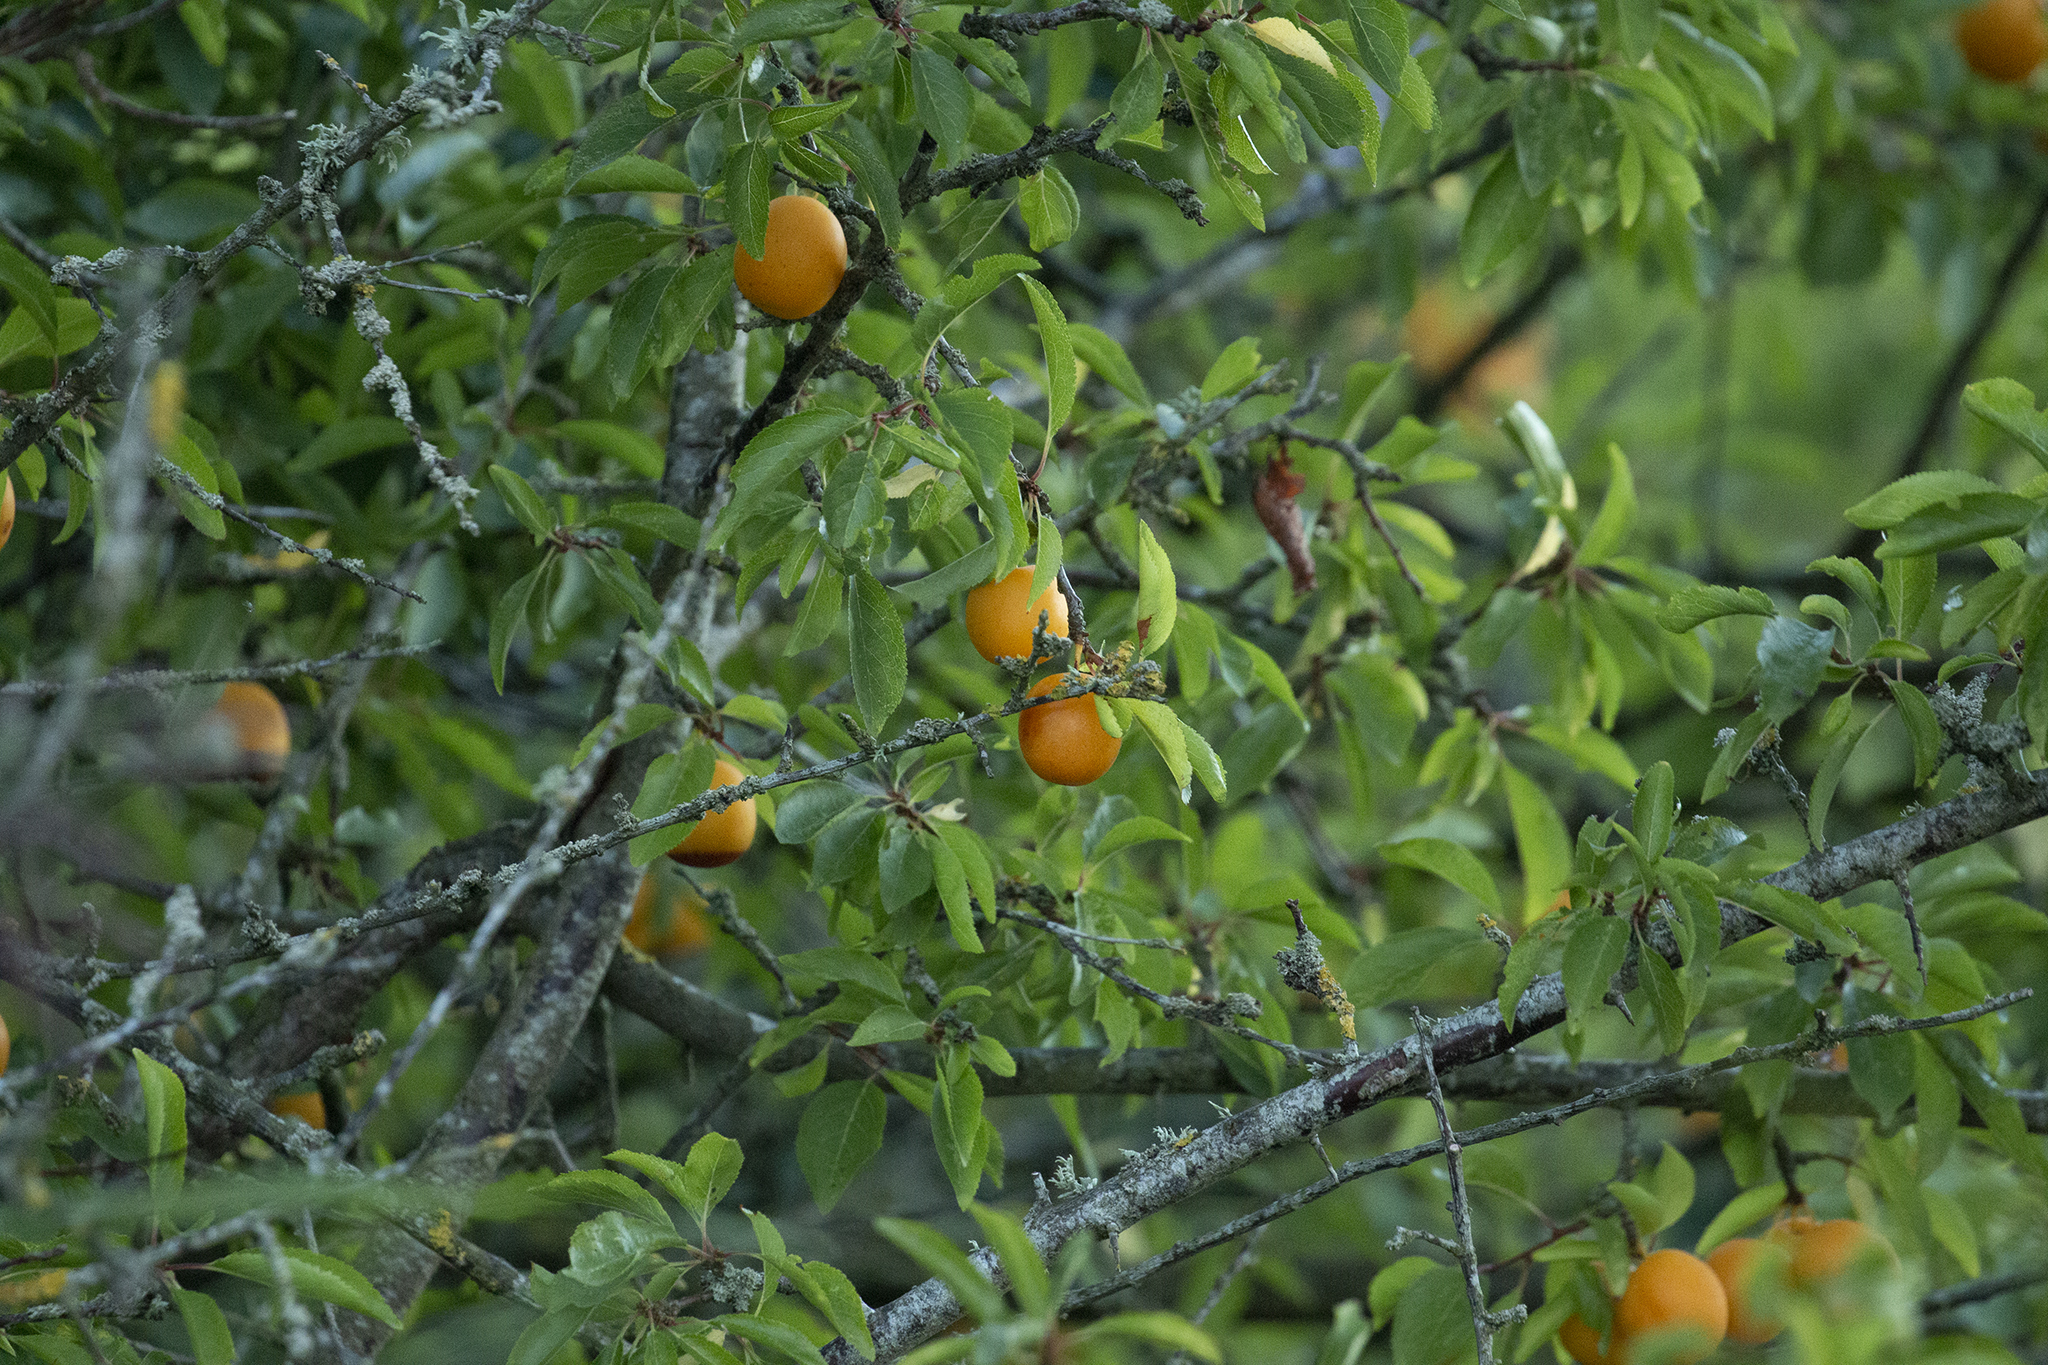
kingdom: Plantae
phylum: Tracheophyta
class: Magnoliopsida
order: Rosales
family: Rosaceae
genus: Prunus
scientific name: Prunus cerasifera
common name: Cherry plum
